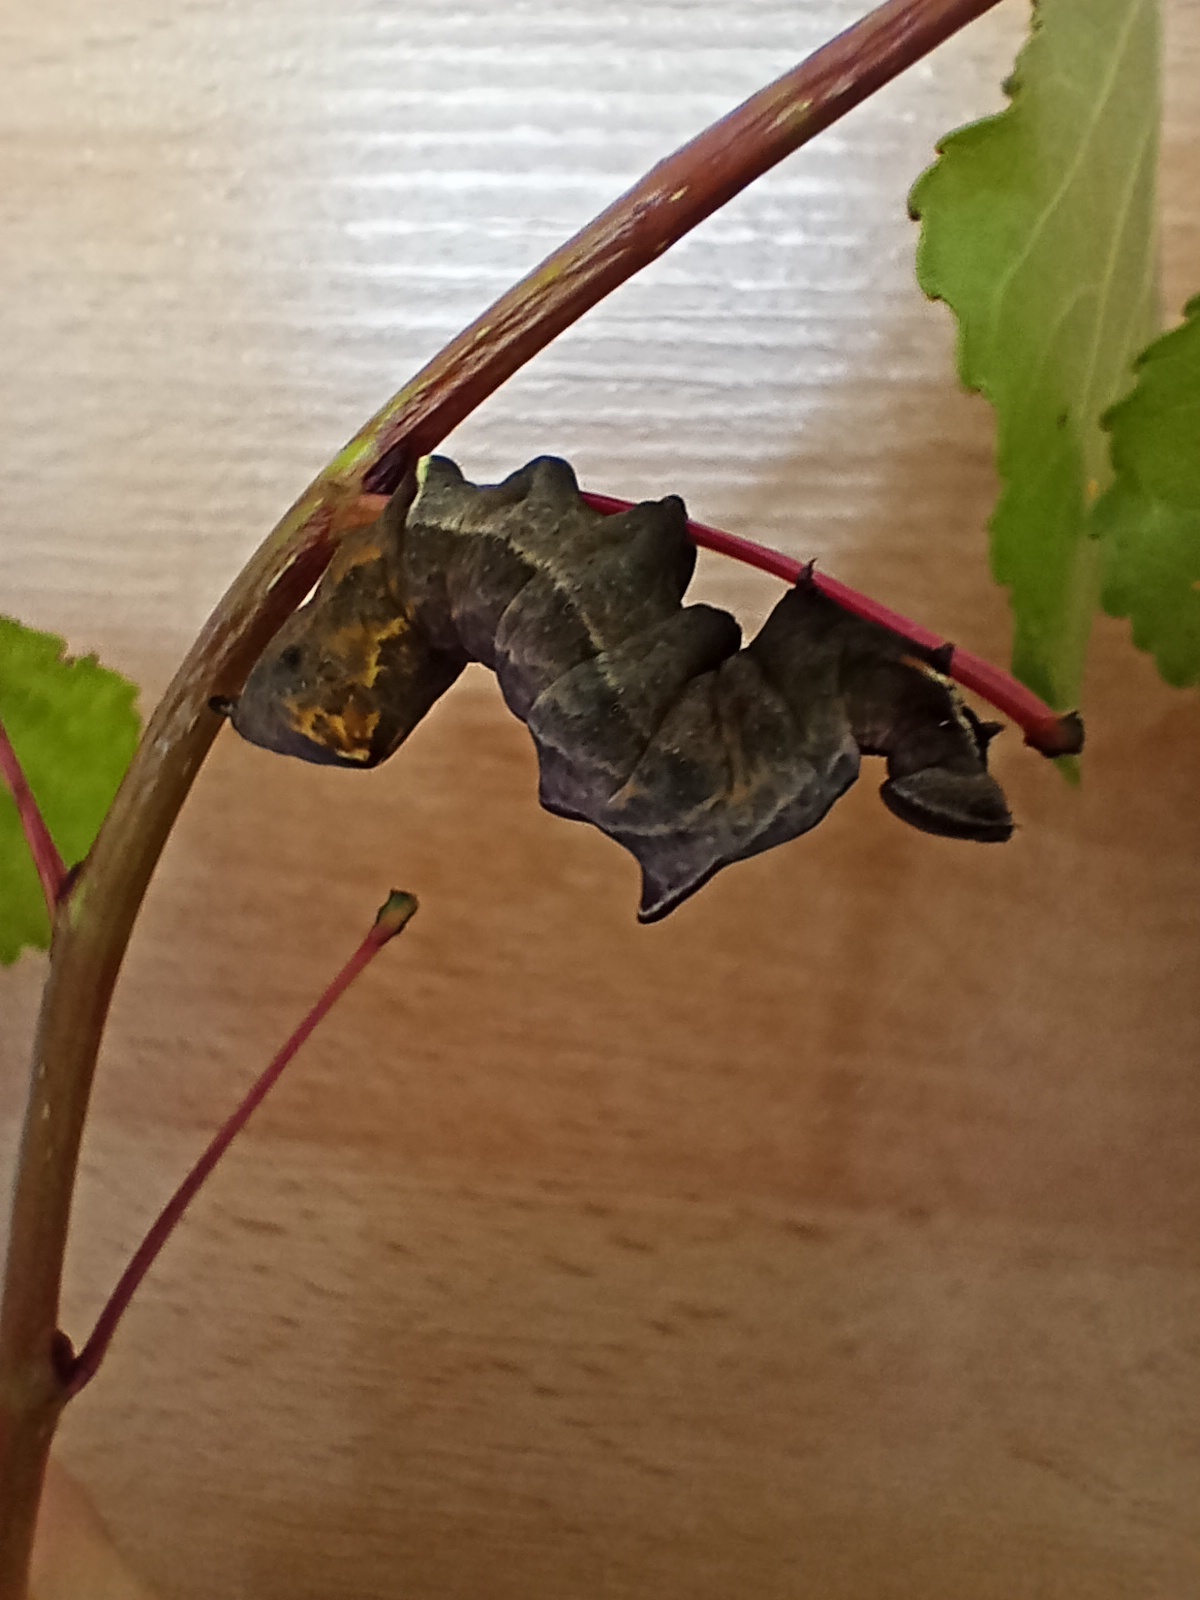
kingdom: Animalia
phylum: Arthropoda
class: Insecta
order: Lepidoptera
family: Notodontidae
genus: Notodonta
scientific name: Notodonta ziczac
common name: Pebble prominent
